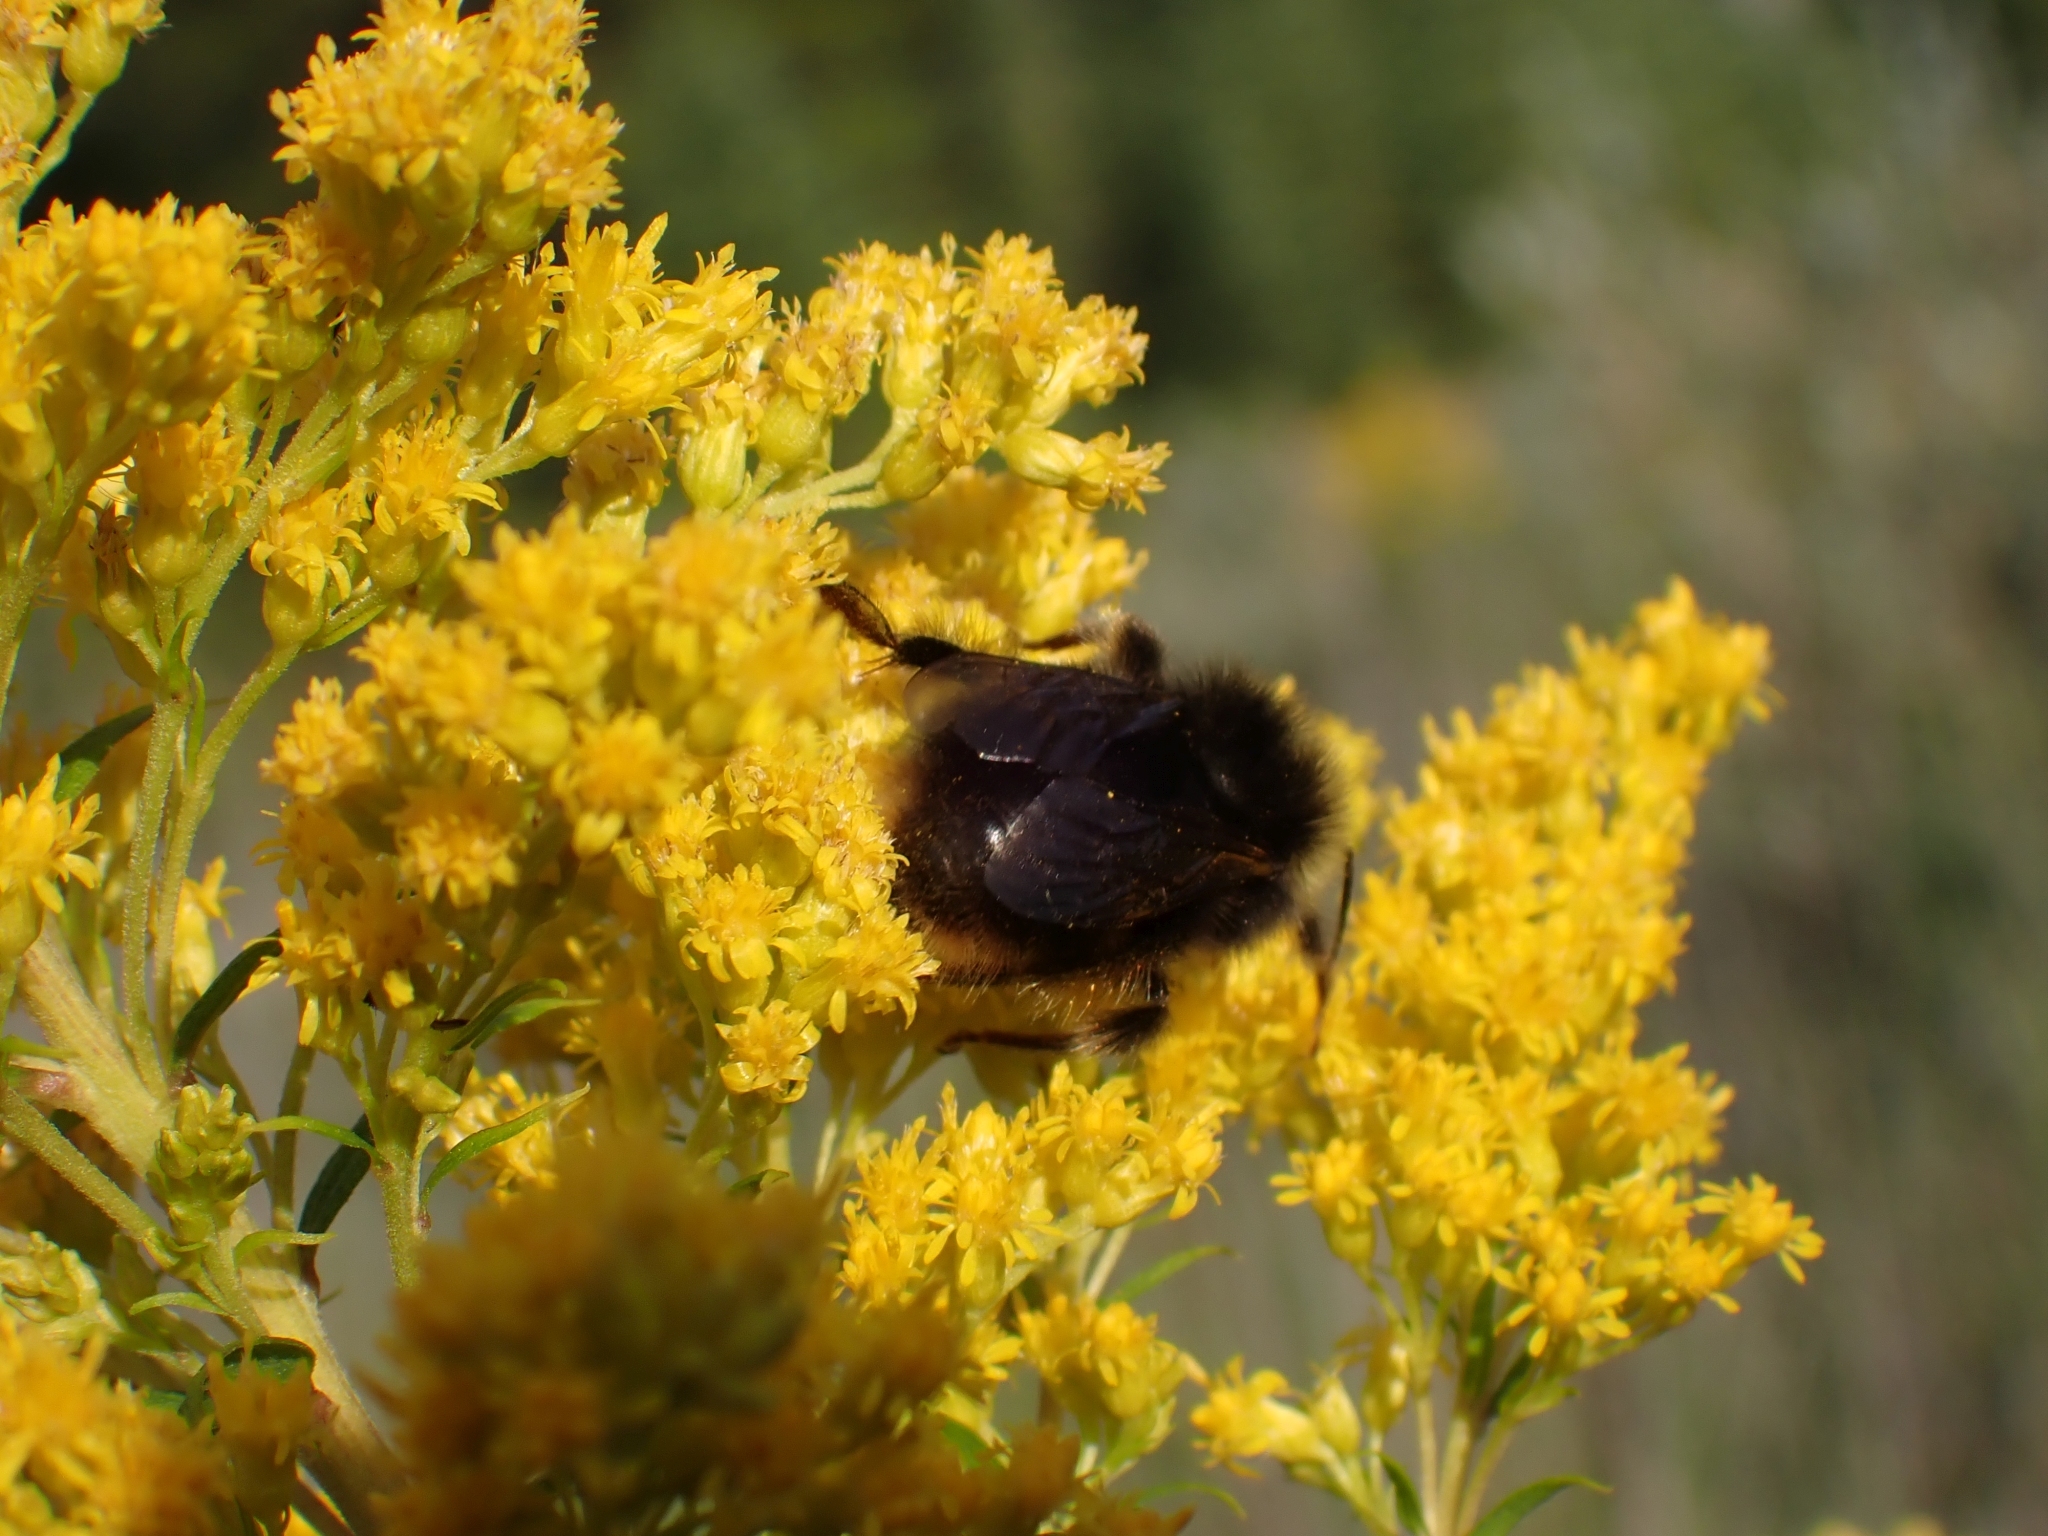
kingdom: Animalia
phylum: Arthropoda
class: Insecta
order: Hymenoptera
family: Apidae
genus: Bombus
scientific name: Bombus mckayi
